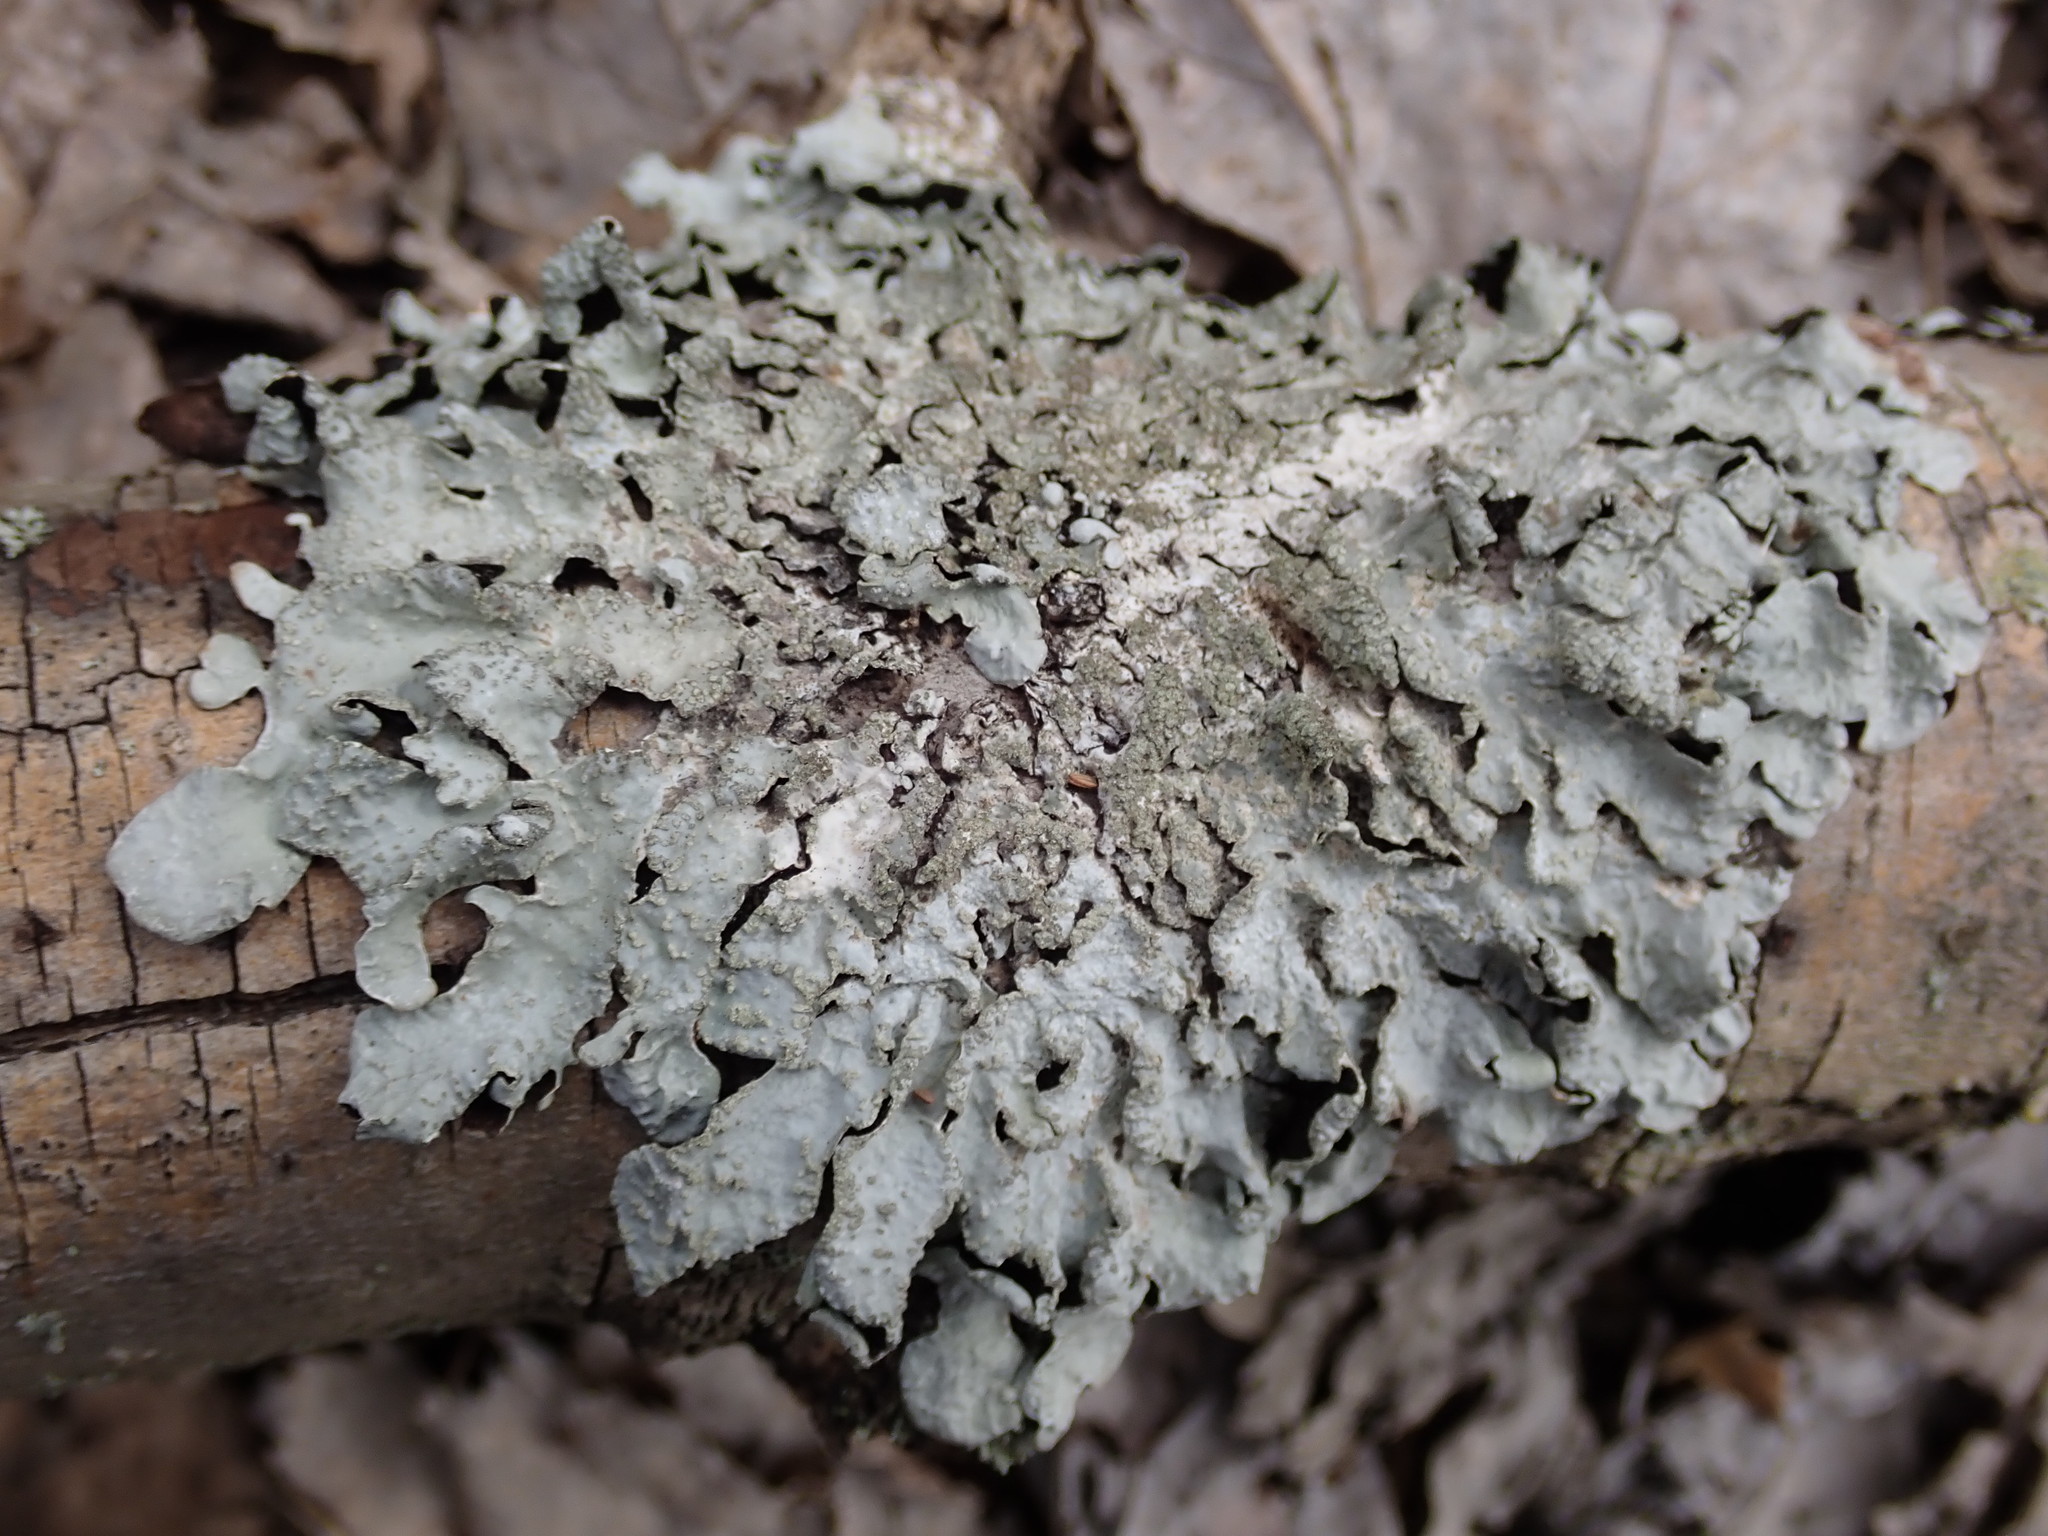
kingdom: Fungi
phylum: Ascomycota
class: Lecanoromycetes
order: Lecanorales
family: Parmeliaceae
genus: Flavoparmelia
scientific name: Flavoparmelia caperata
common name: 40-mile per hour lichen
